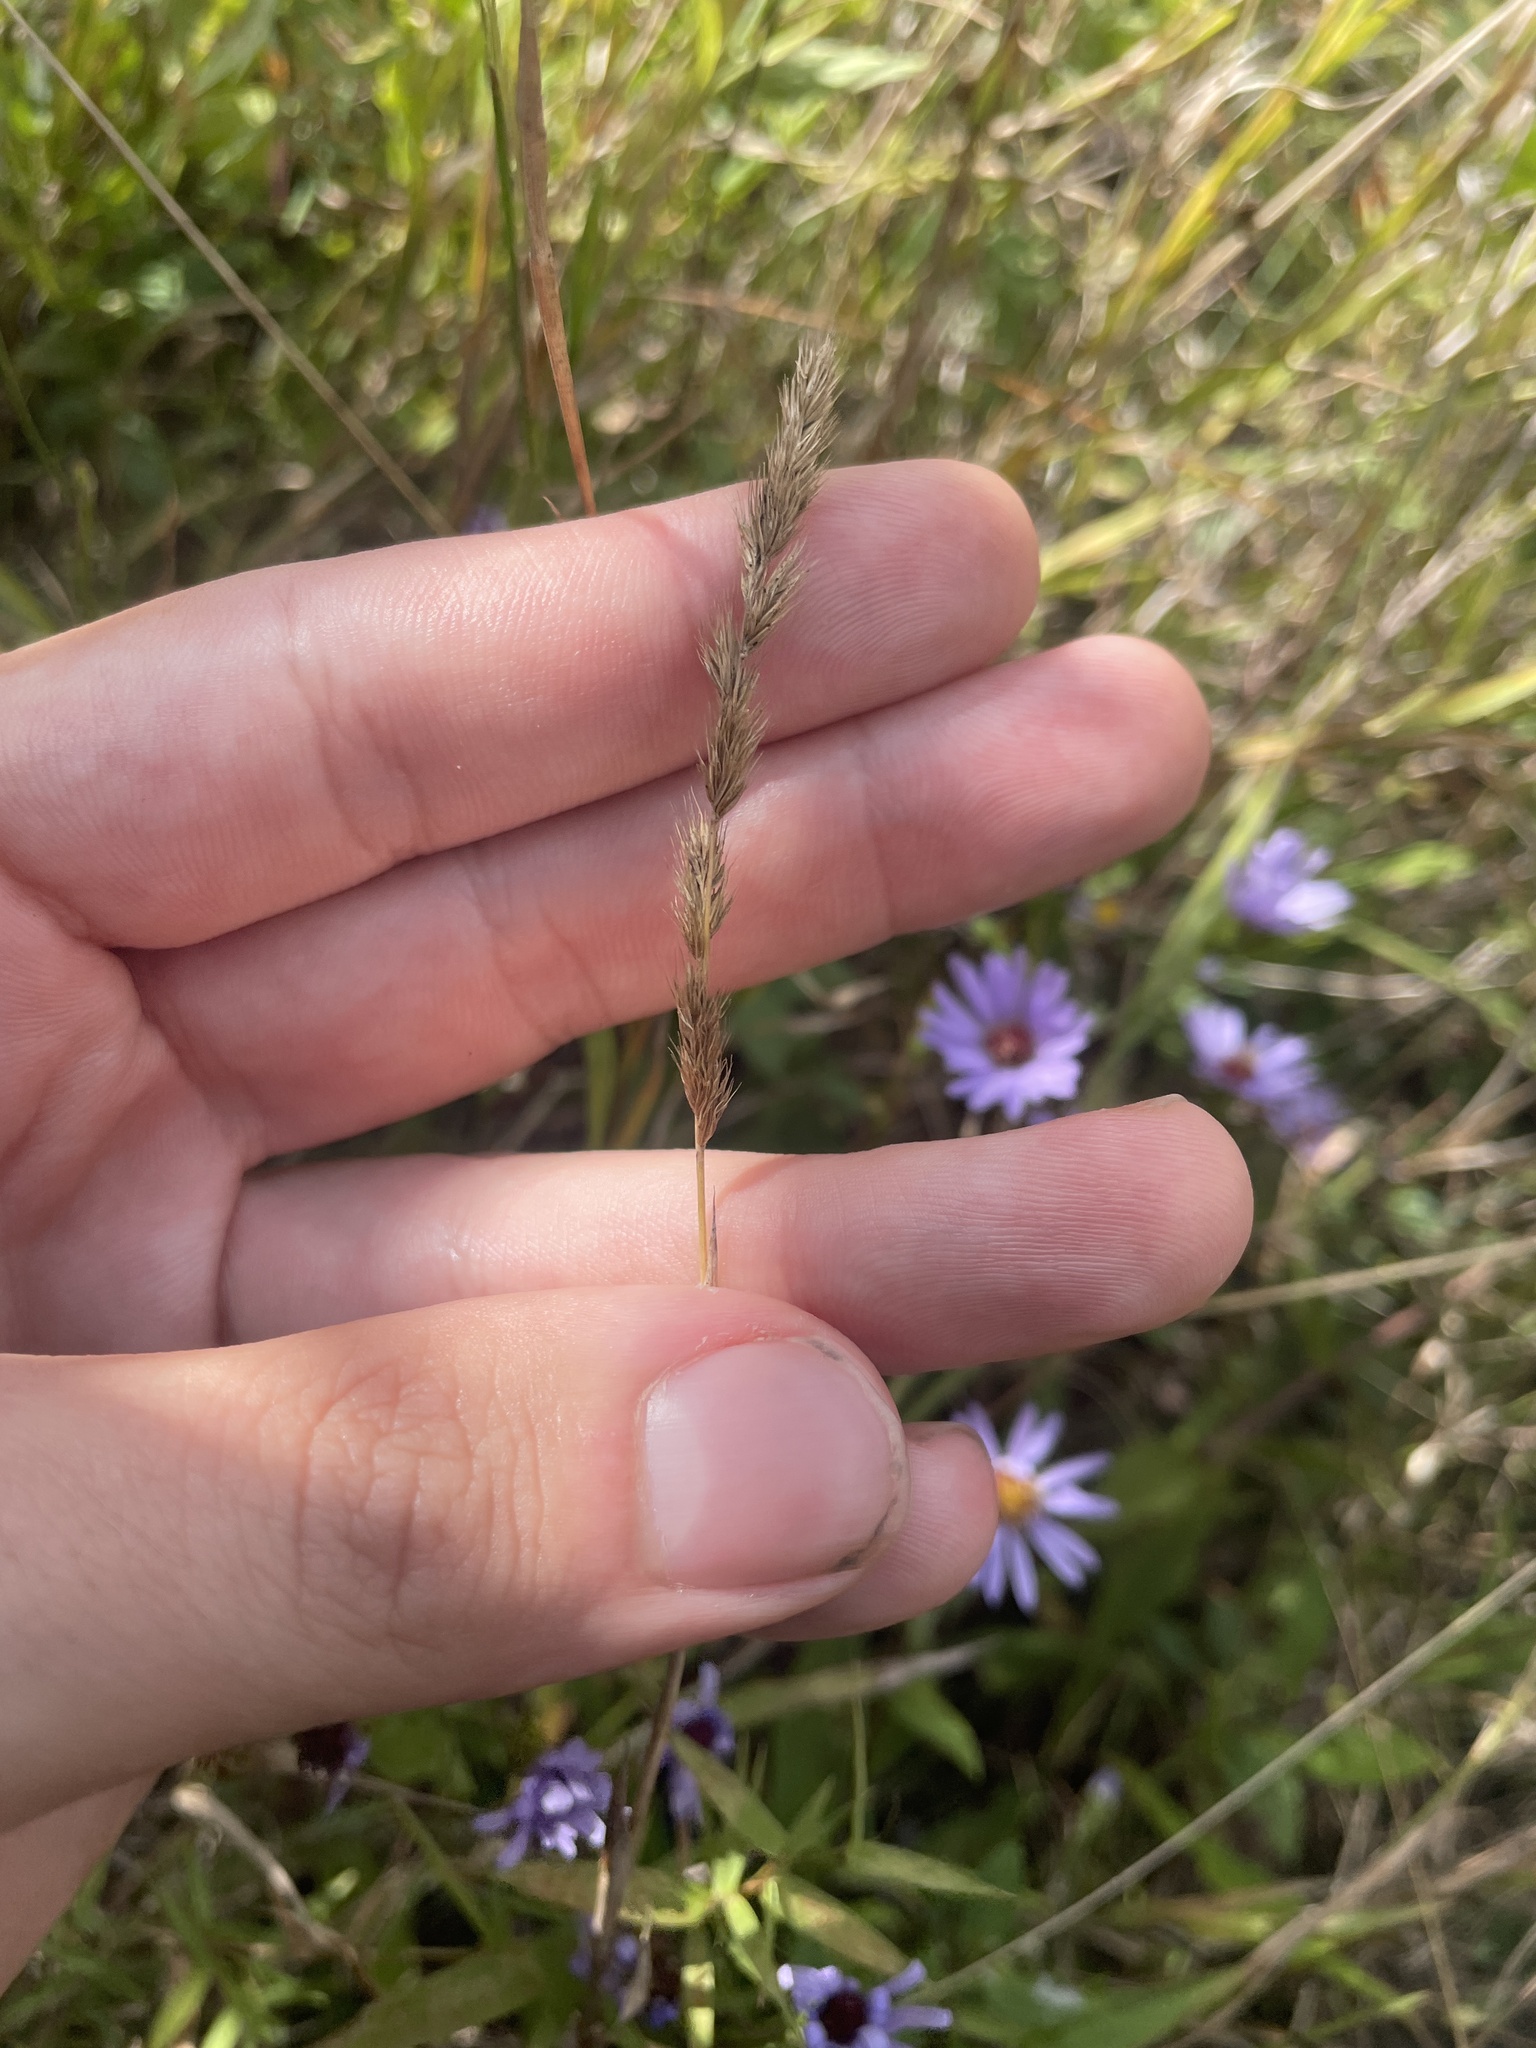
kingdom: Plantae
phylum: Tracheophyta
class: Liliopsida
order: Poales
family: Poaceae
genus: Muhlenbergia
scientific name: Muhlenbergia glomerata
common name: Bog muhly
